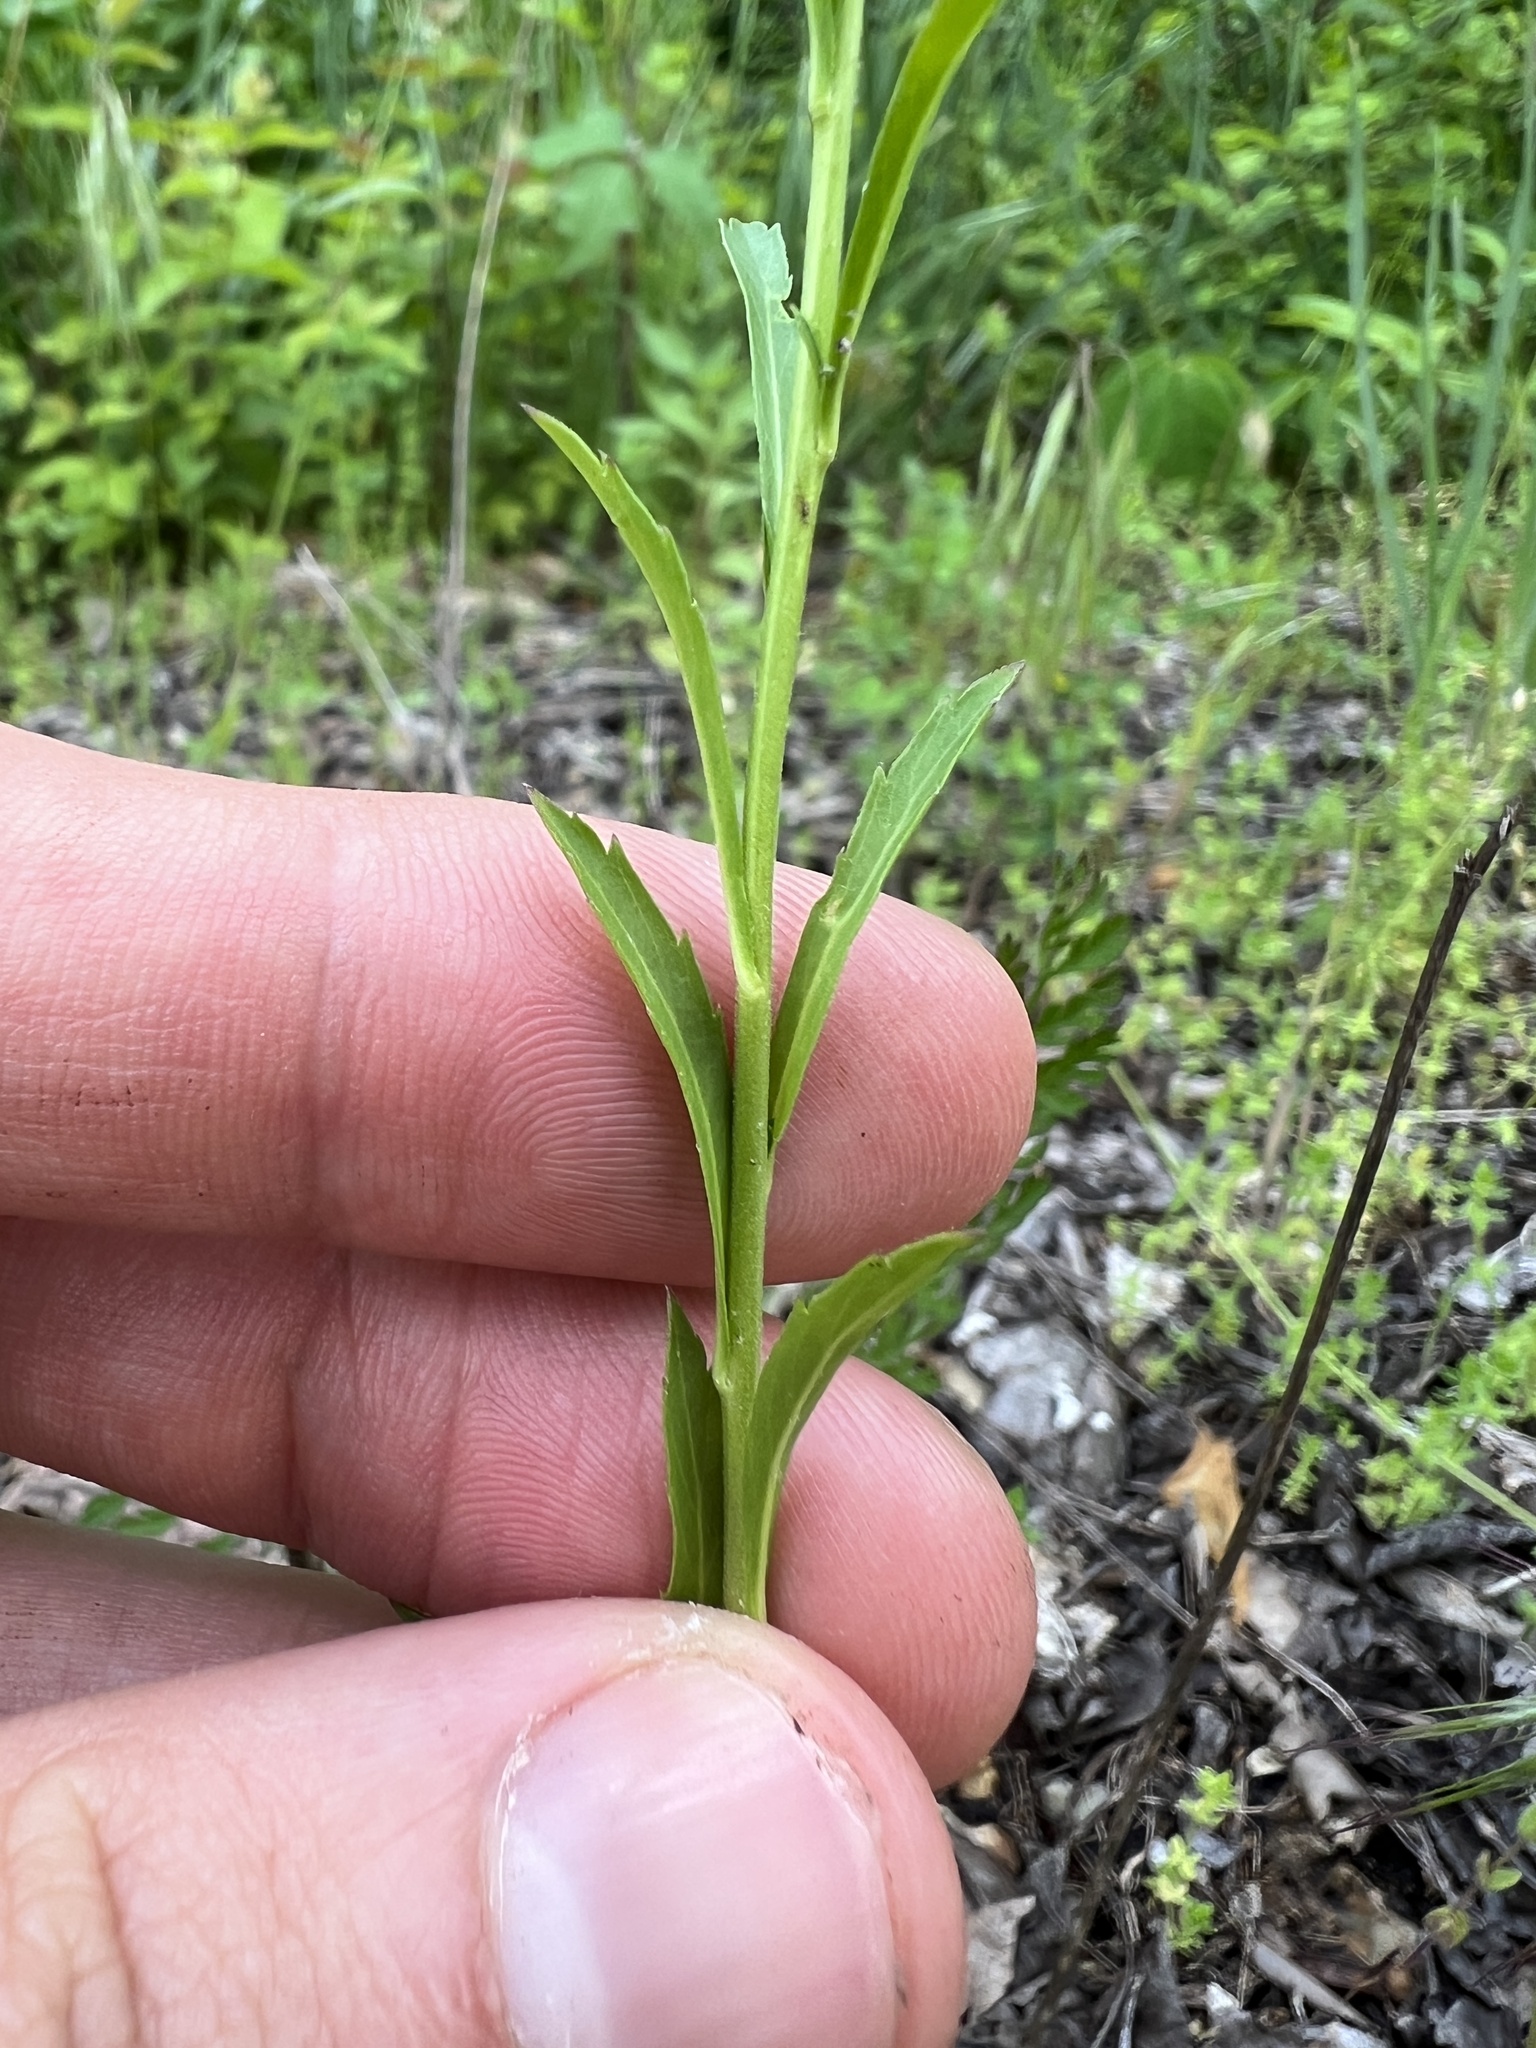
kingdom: Plantae
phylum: Tracheophyta
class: Magnoliopsida
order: Brassicales
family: Brassicaceae
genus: Lepidium
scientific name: Lepidium virginicum
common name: Least pepperwort
